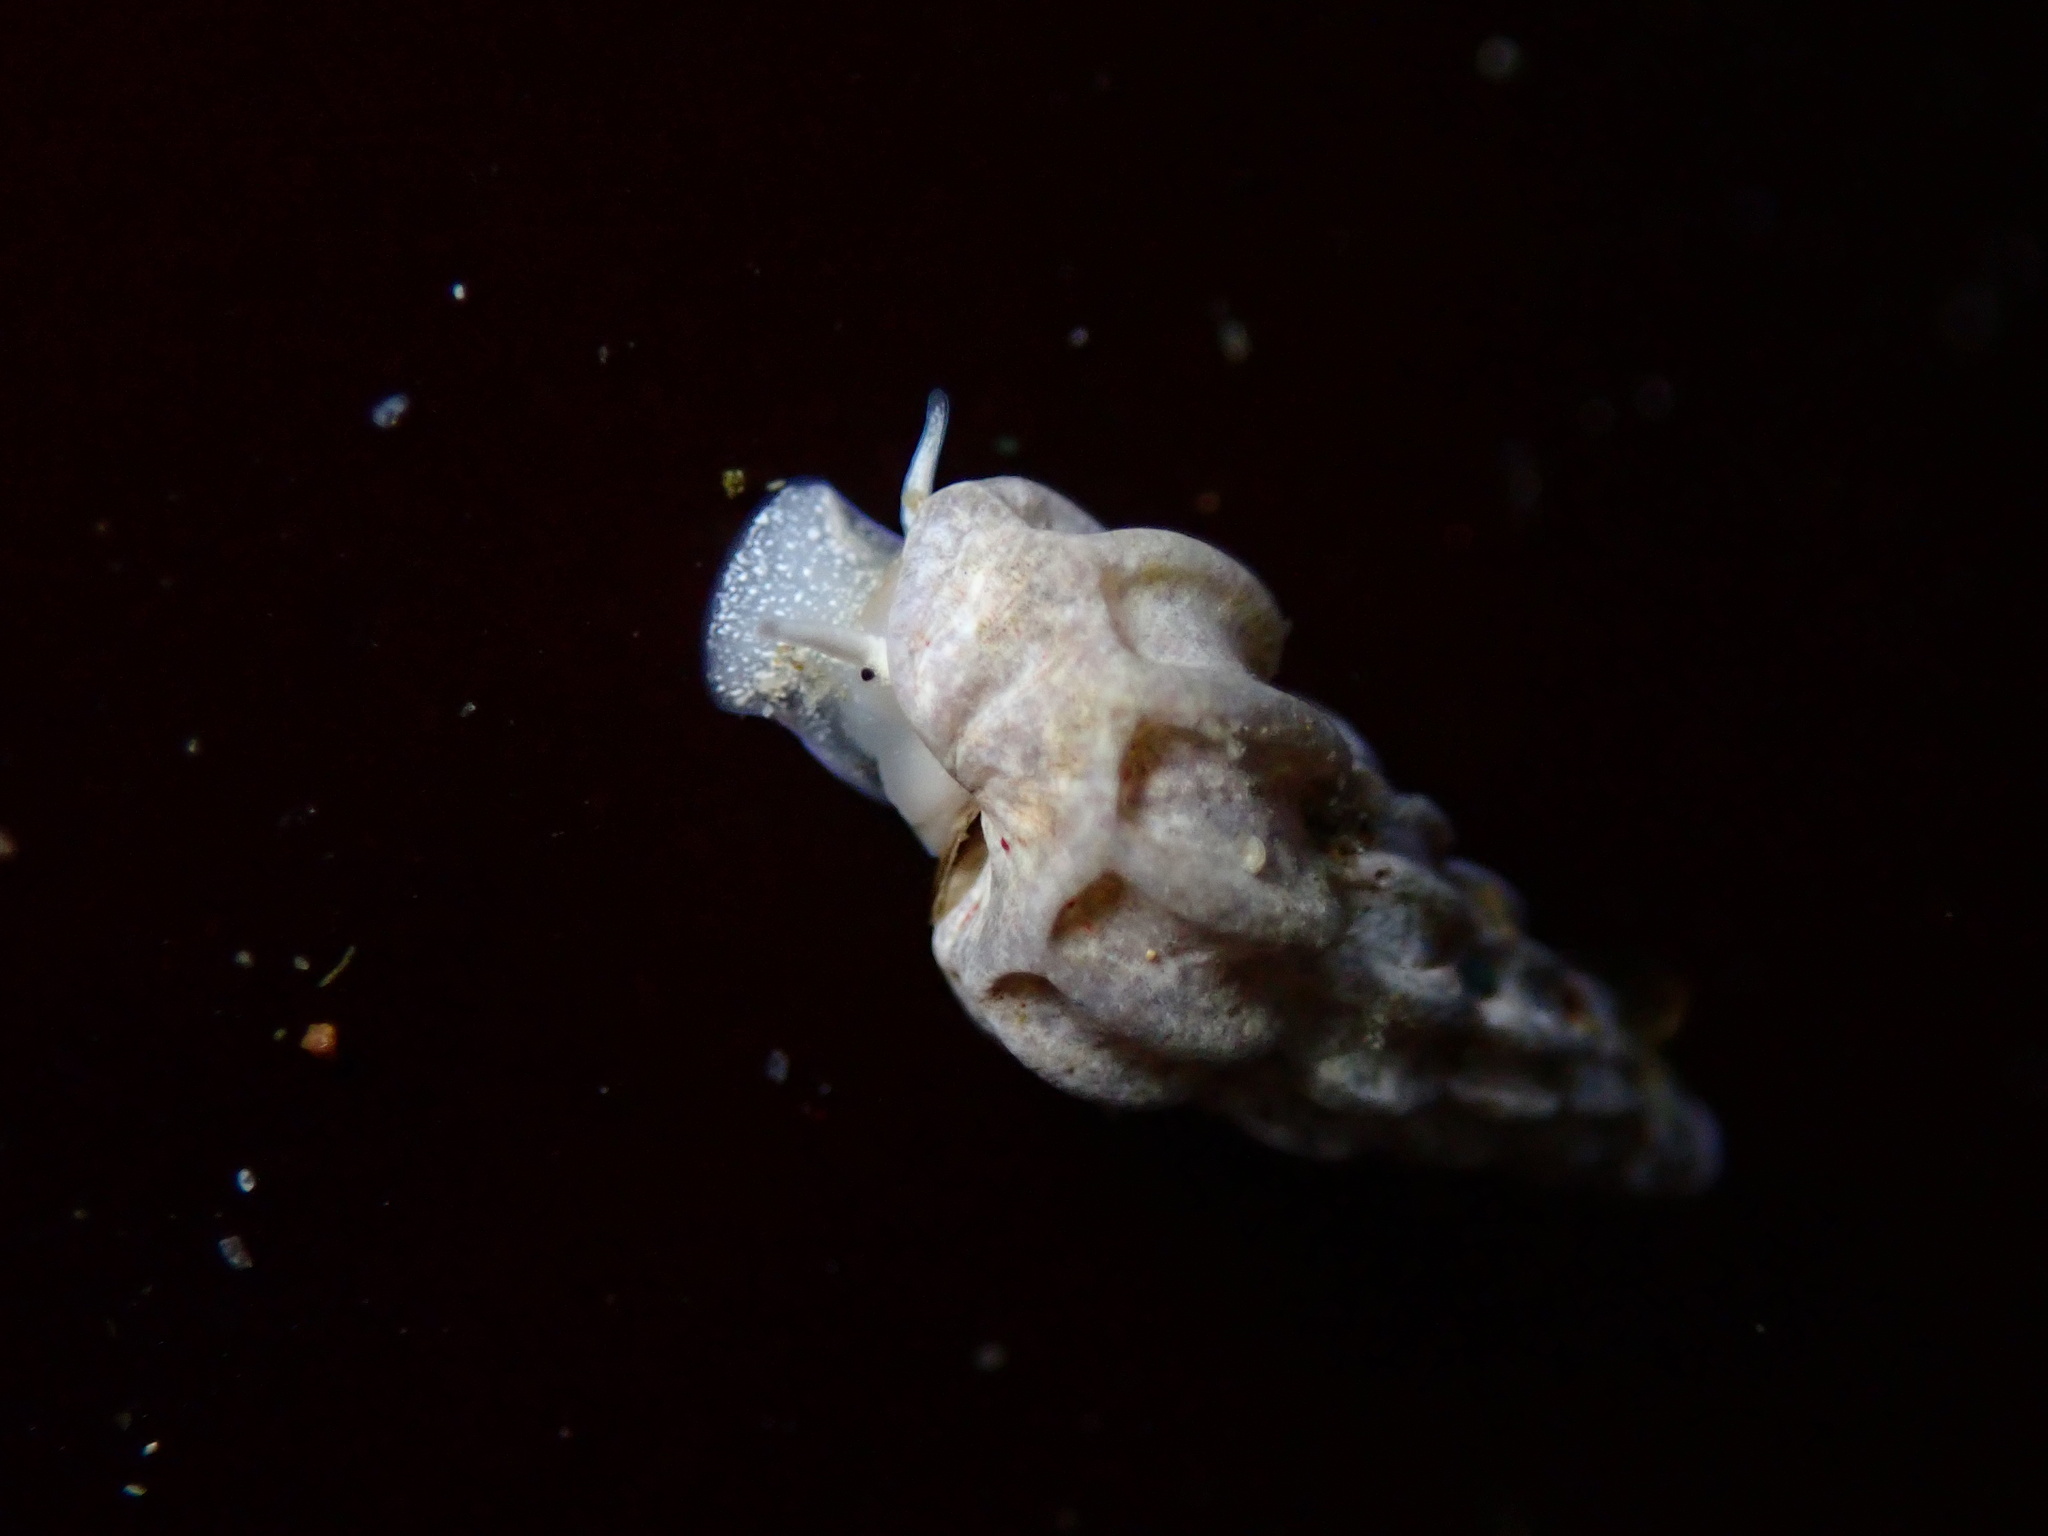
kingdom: Animalia
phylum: Mollusca
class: Gastropoda
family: Epitoniidae
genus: Opalia
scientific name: Opalia wroblewskyi
